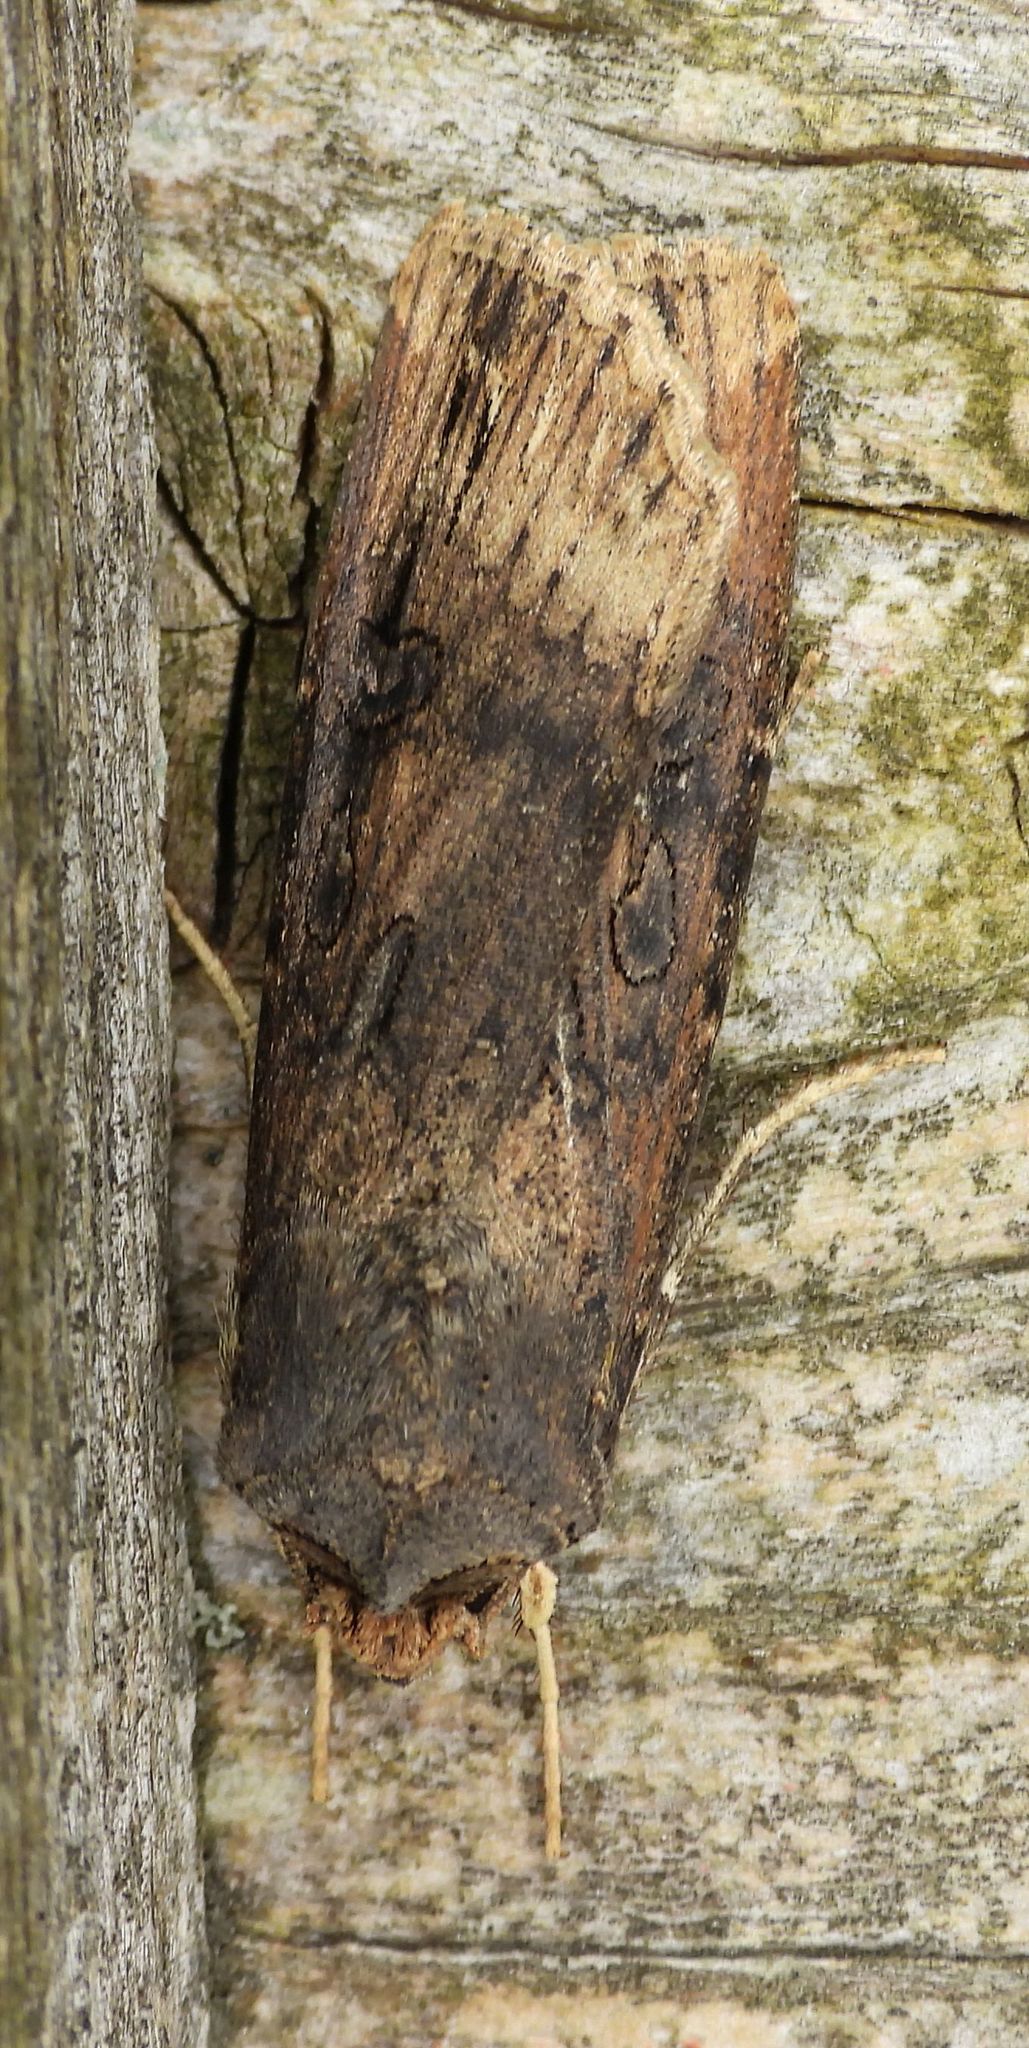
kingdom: Animalia
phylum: Arthropoda
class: Insecta
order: Lepidoptera
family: Noctuidae
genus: Agrotis
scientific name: Agrotis ipsilon
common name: Dark sword-grass
